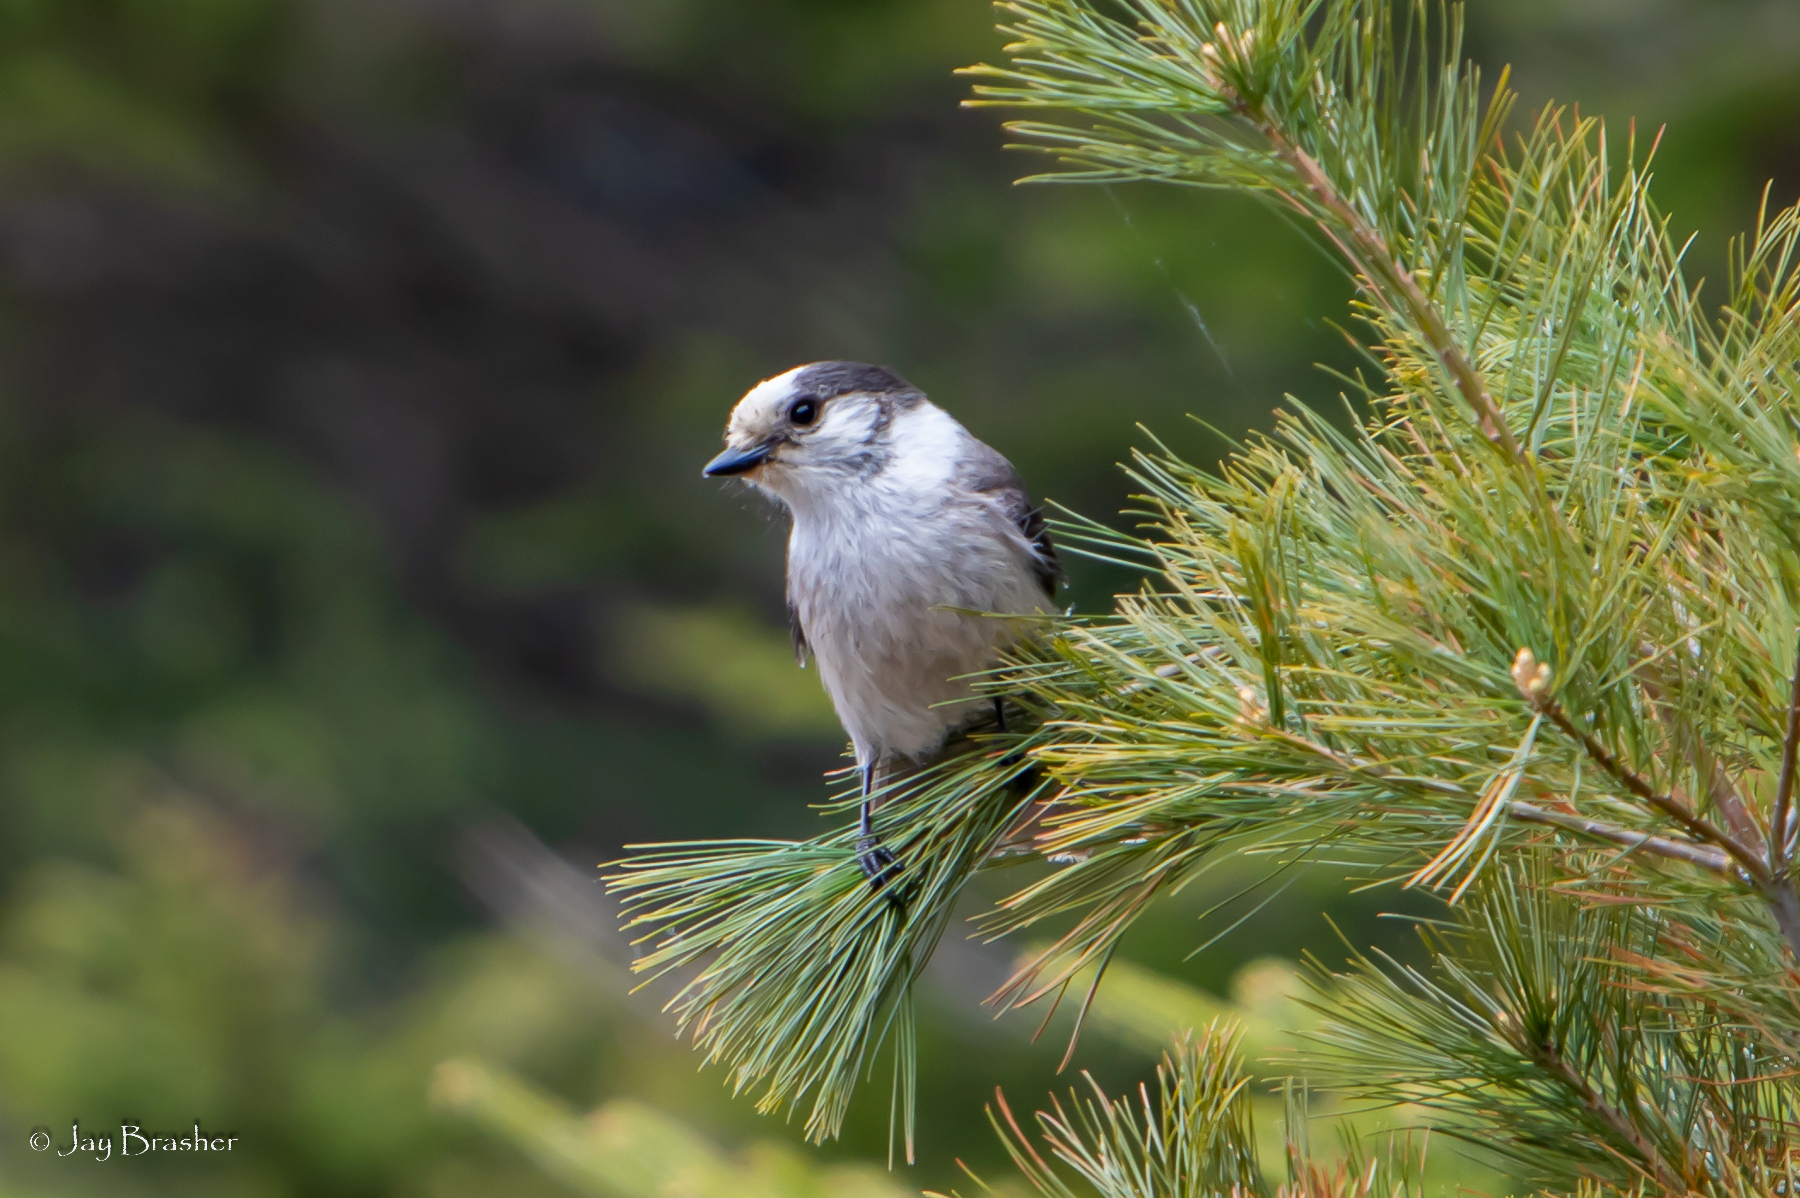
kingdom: Animalia
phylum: Chordata
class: Aves
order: Passeriformes
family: Corvidae
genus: Perisoreus
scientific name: Perisoreus canadensis
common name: Gray jay
